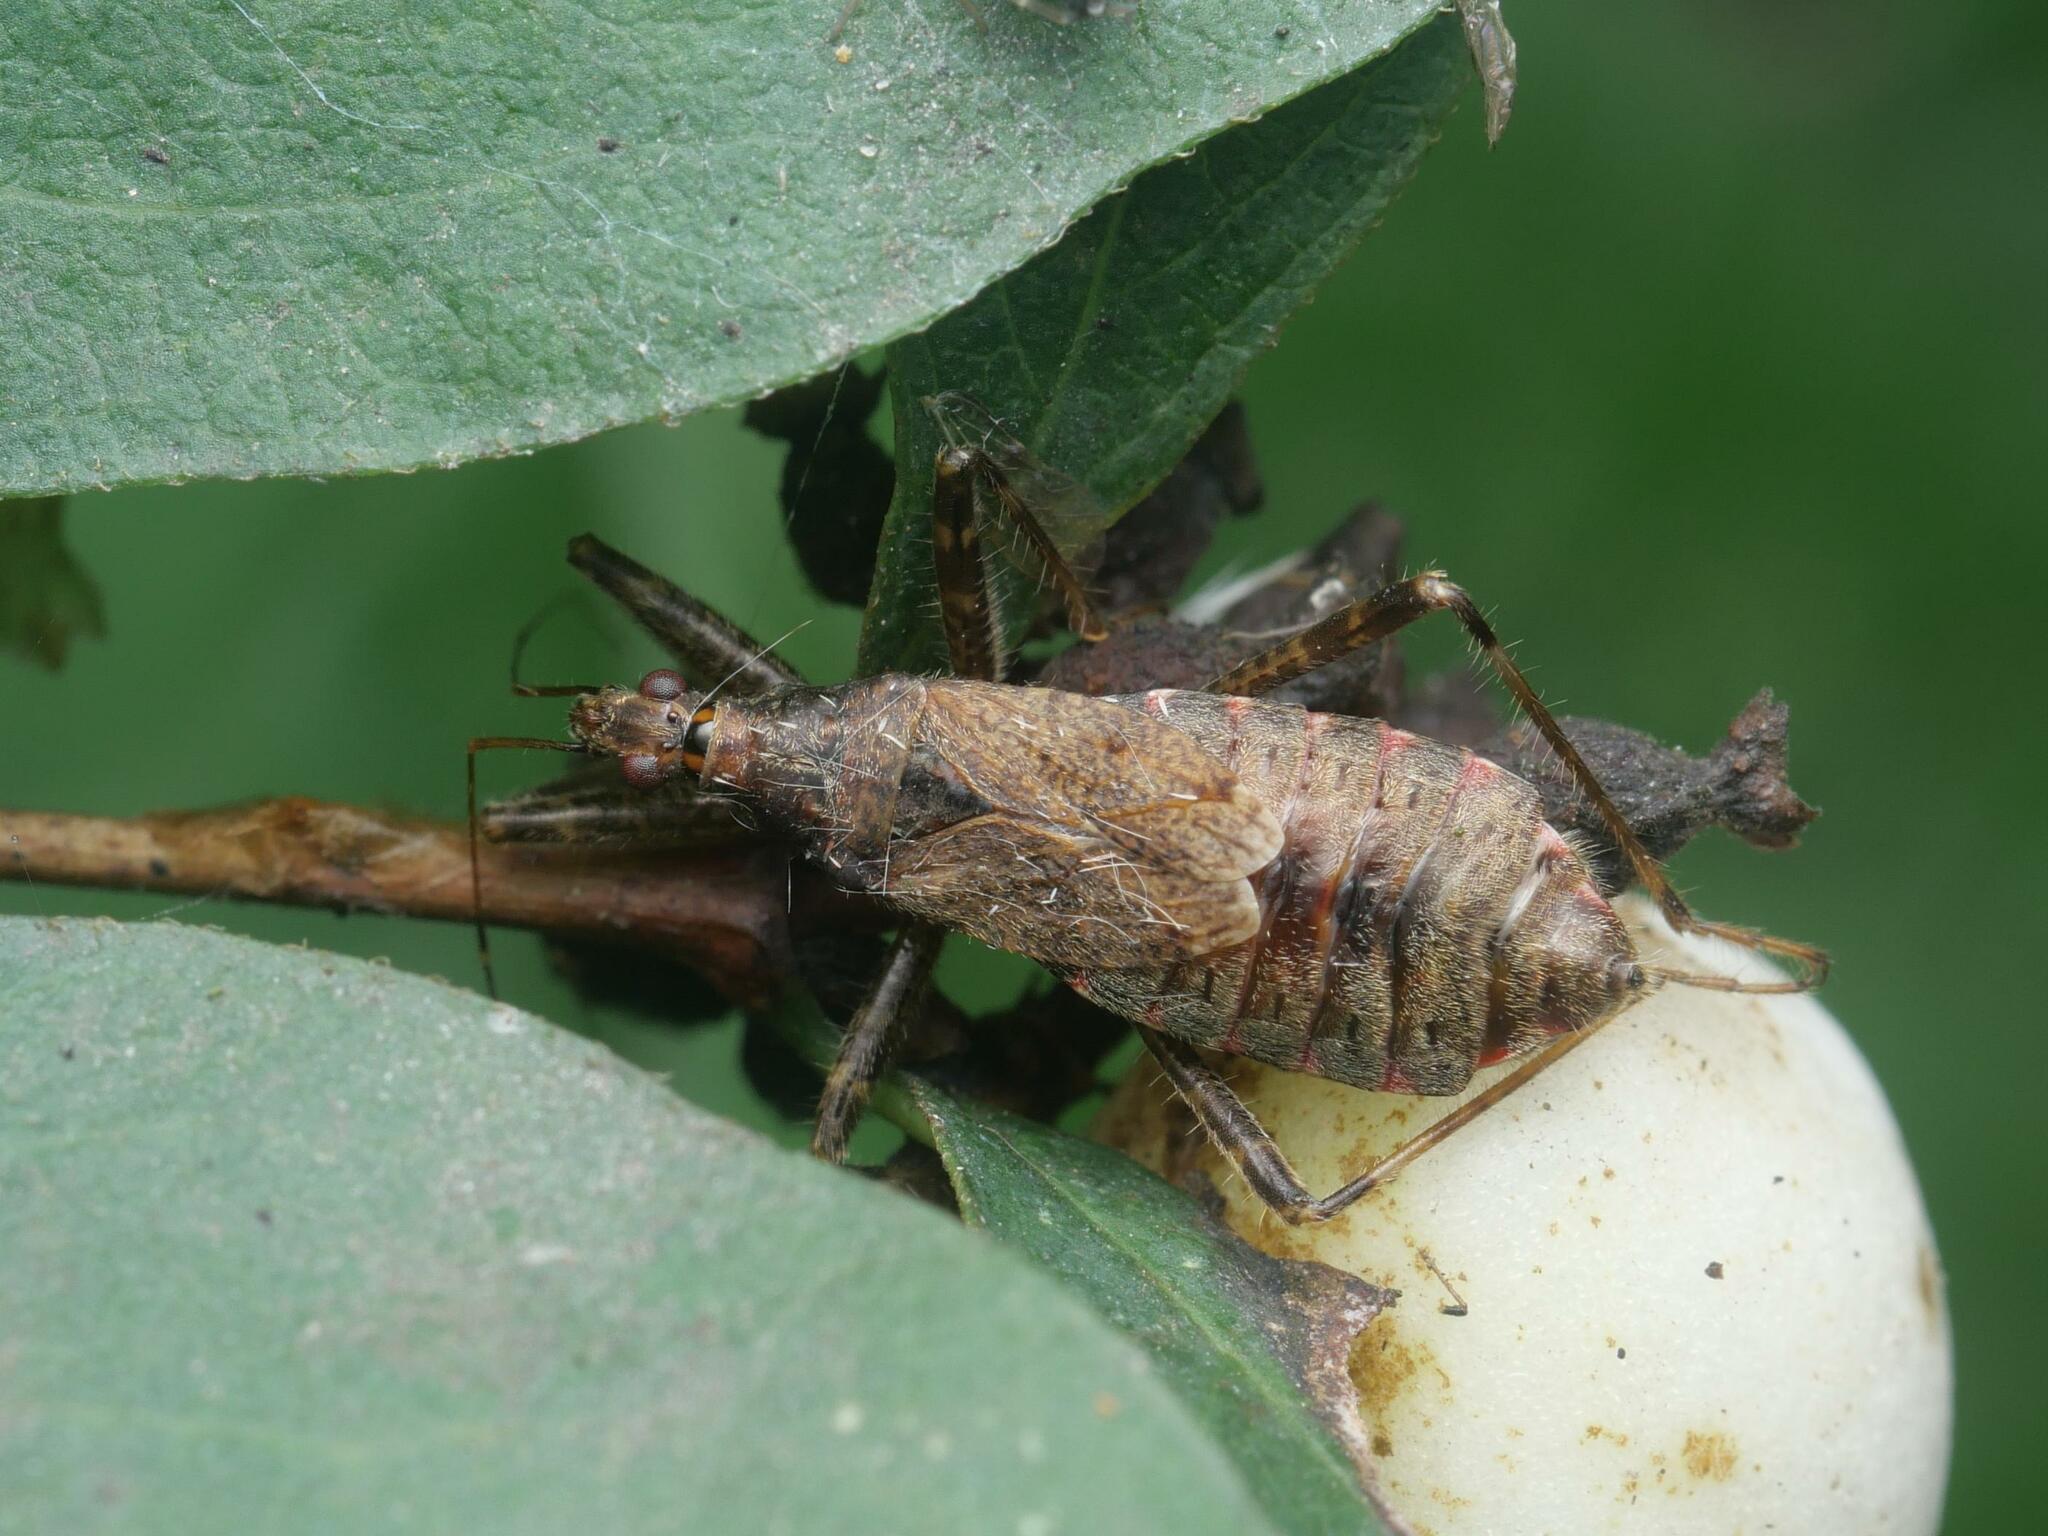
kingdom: Animalia
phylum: Arthropoda
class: Insecta
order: Hemiptera
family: Nabidae
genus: Himacerus
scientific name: Himacerus apterus
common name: Tree damsel bug
